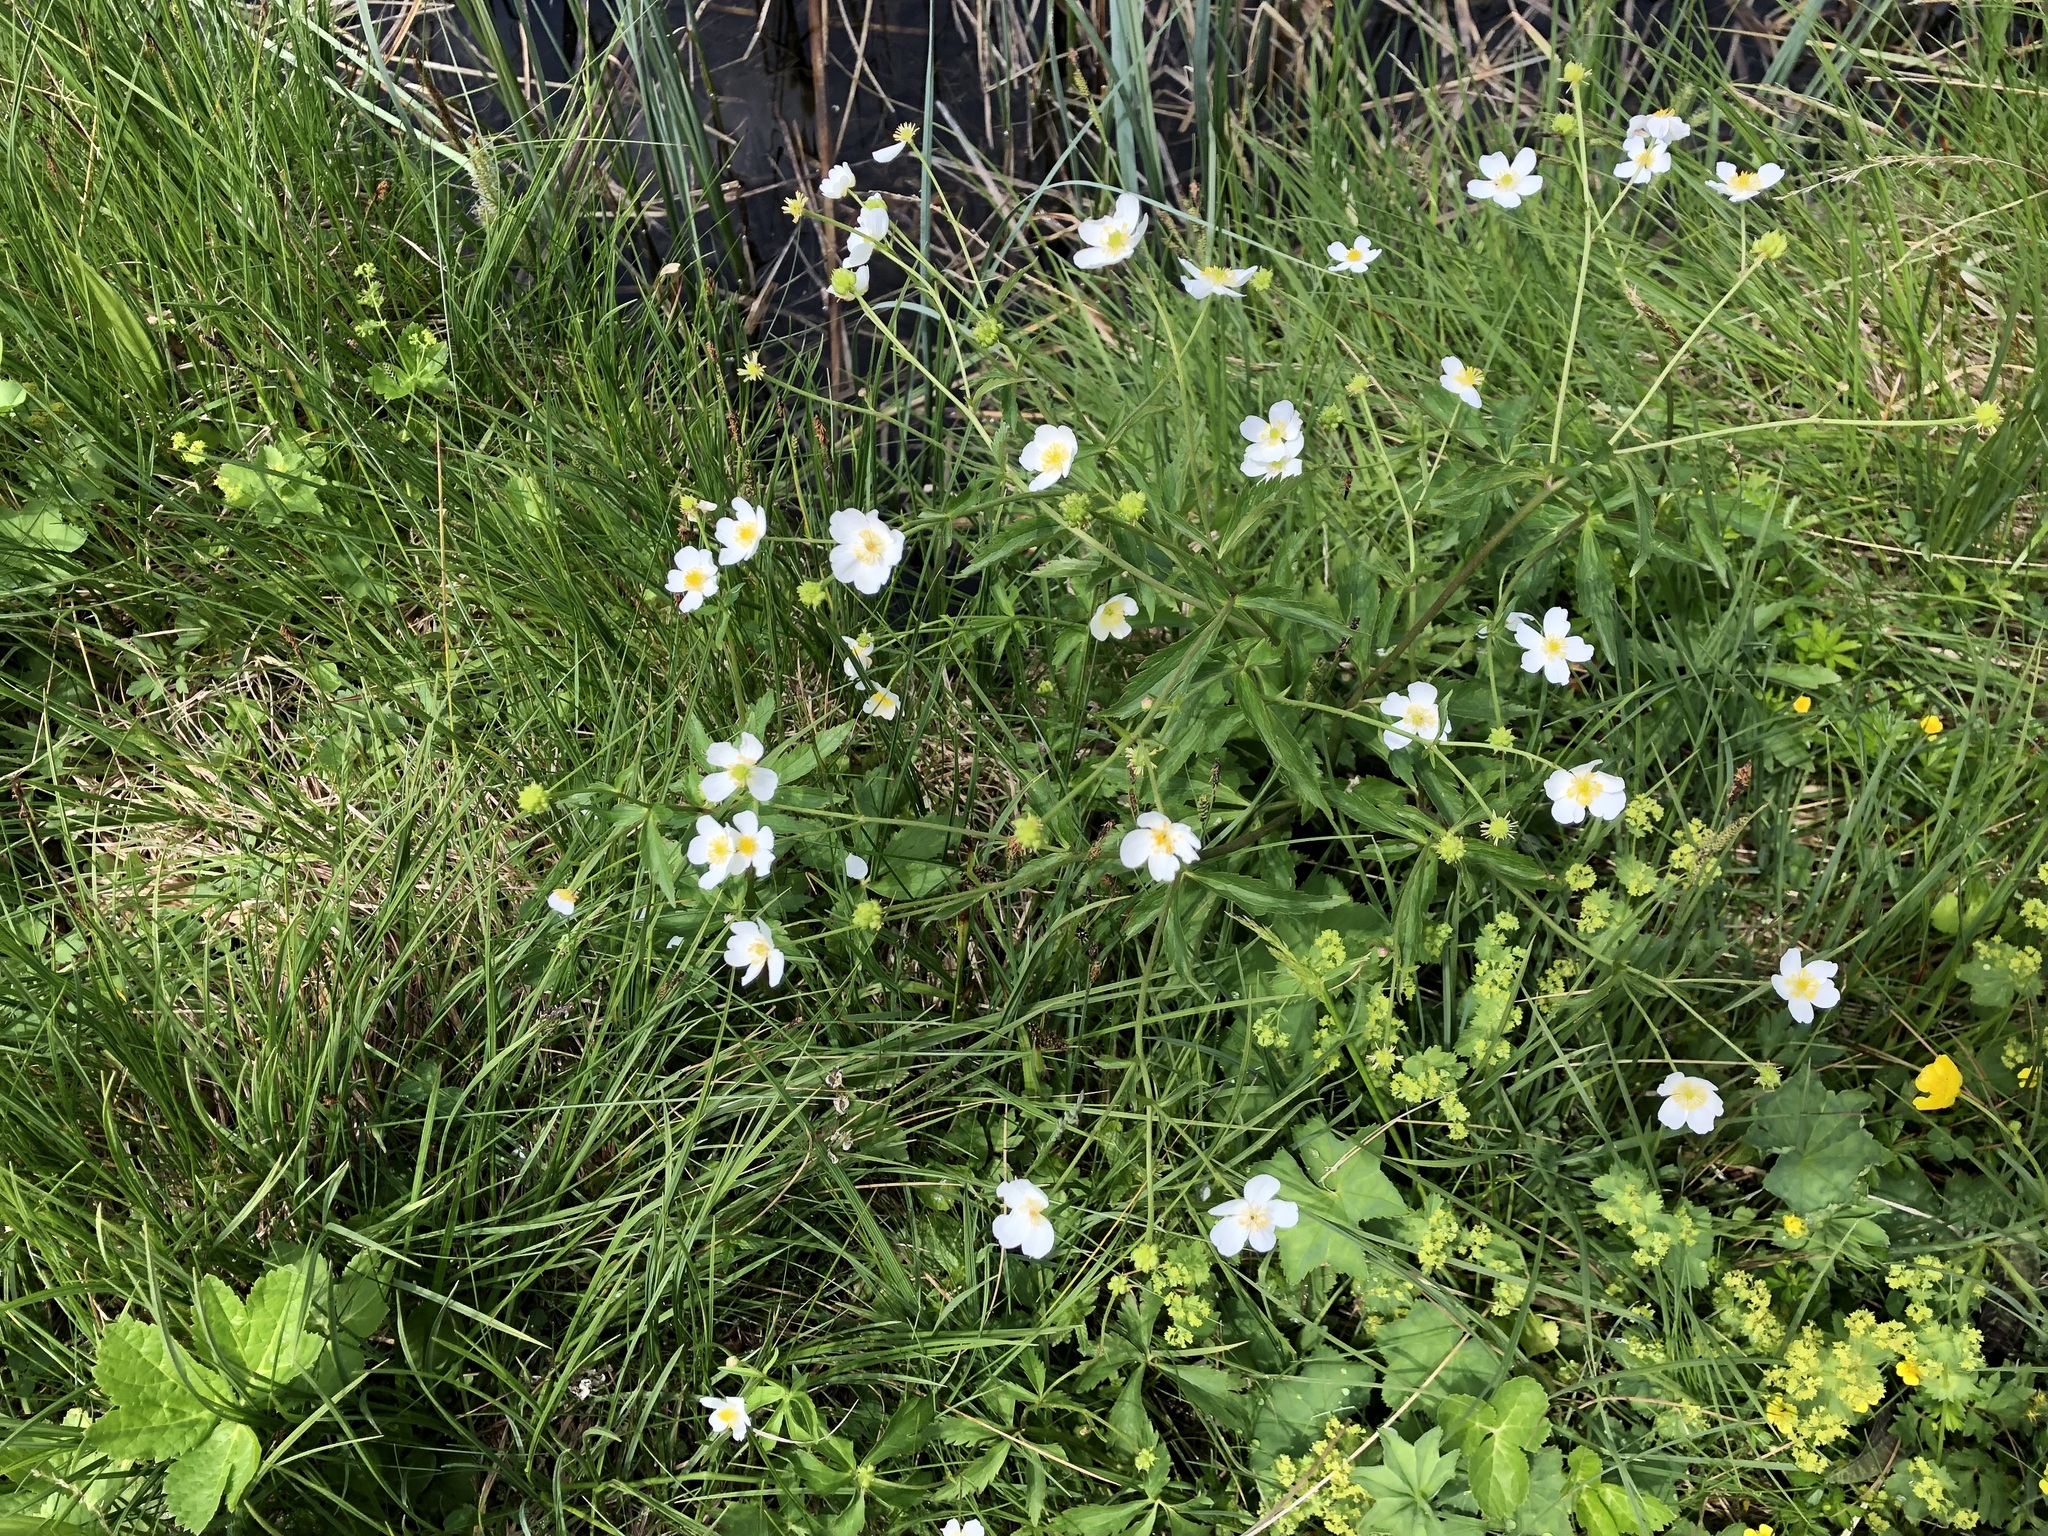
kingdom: Plantae
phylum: Tracheophyta
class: Magnoliopsida
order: Ranunculales
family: Ranunculaceae
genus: Ranunculus
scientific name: Ranunculus aconitifolius
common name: Aconite-leaved buttercup
